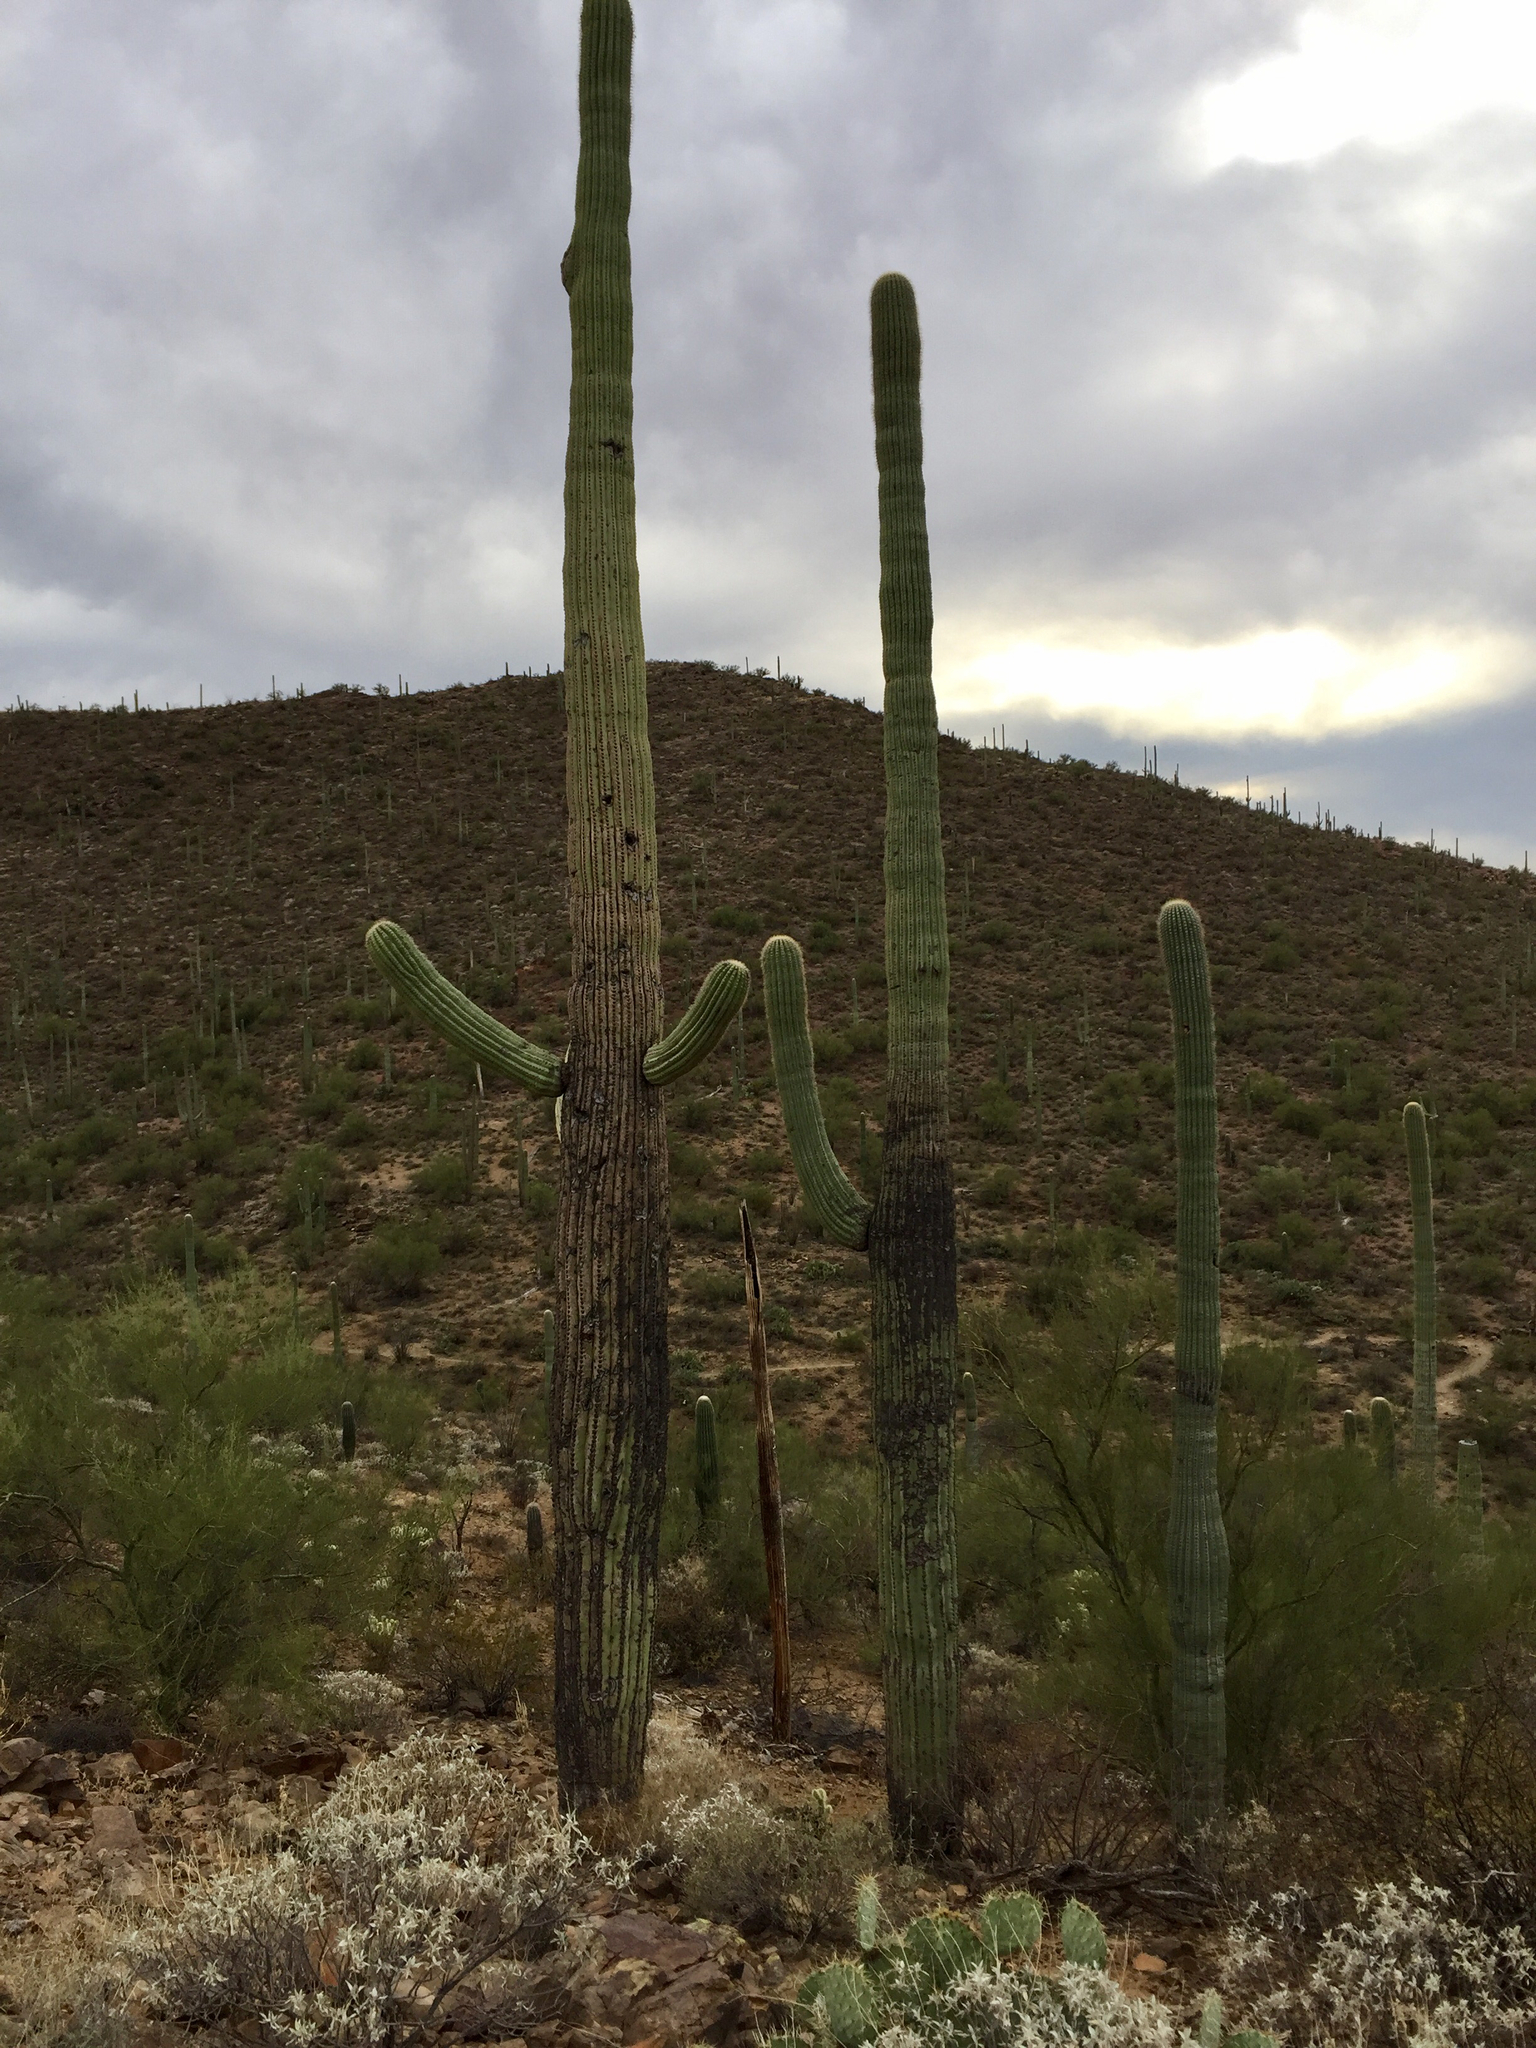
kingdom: Plantae
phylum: Tracheophyta
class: Magnoliopsida
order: Caryophyllales
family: Cactaceae
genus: Carnegiea
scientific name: Carnegiea gigantea
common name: Saguaro
